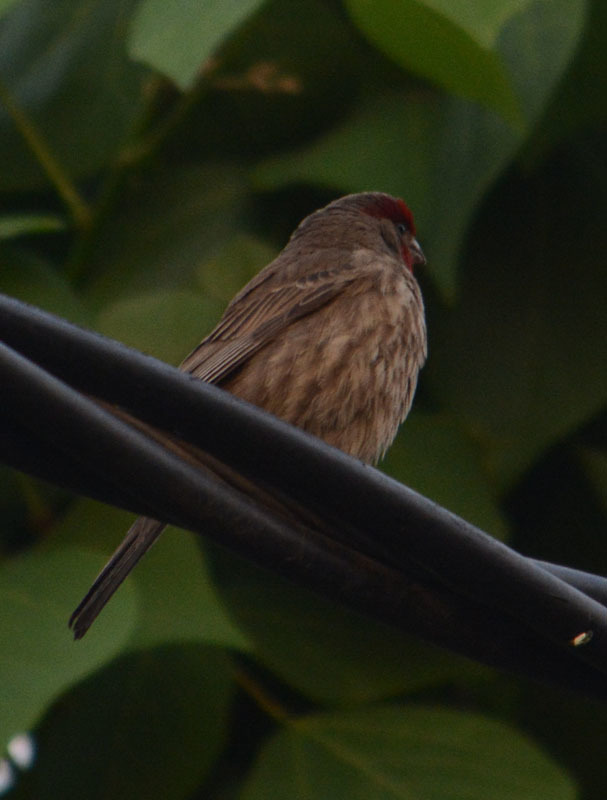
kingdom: Animalia
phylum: Chordata
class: Aves
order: Passeriformes
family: Fringillidae
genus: Haemorhous
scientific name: Haemorhous mexicanus
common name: House finch
